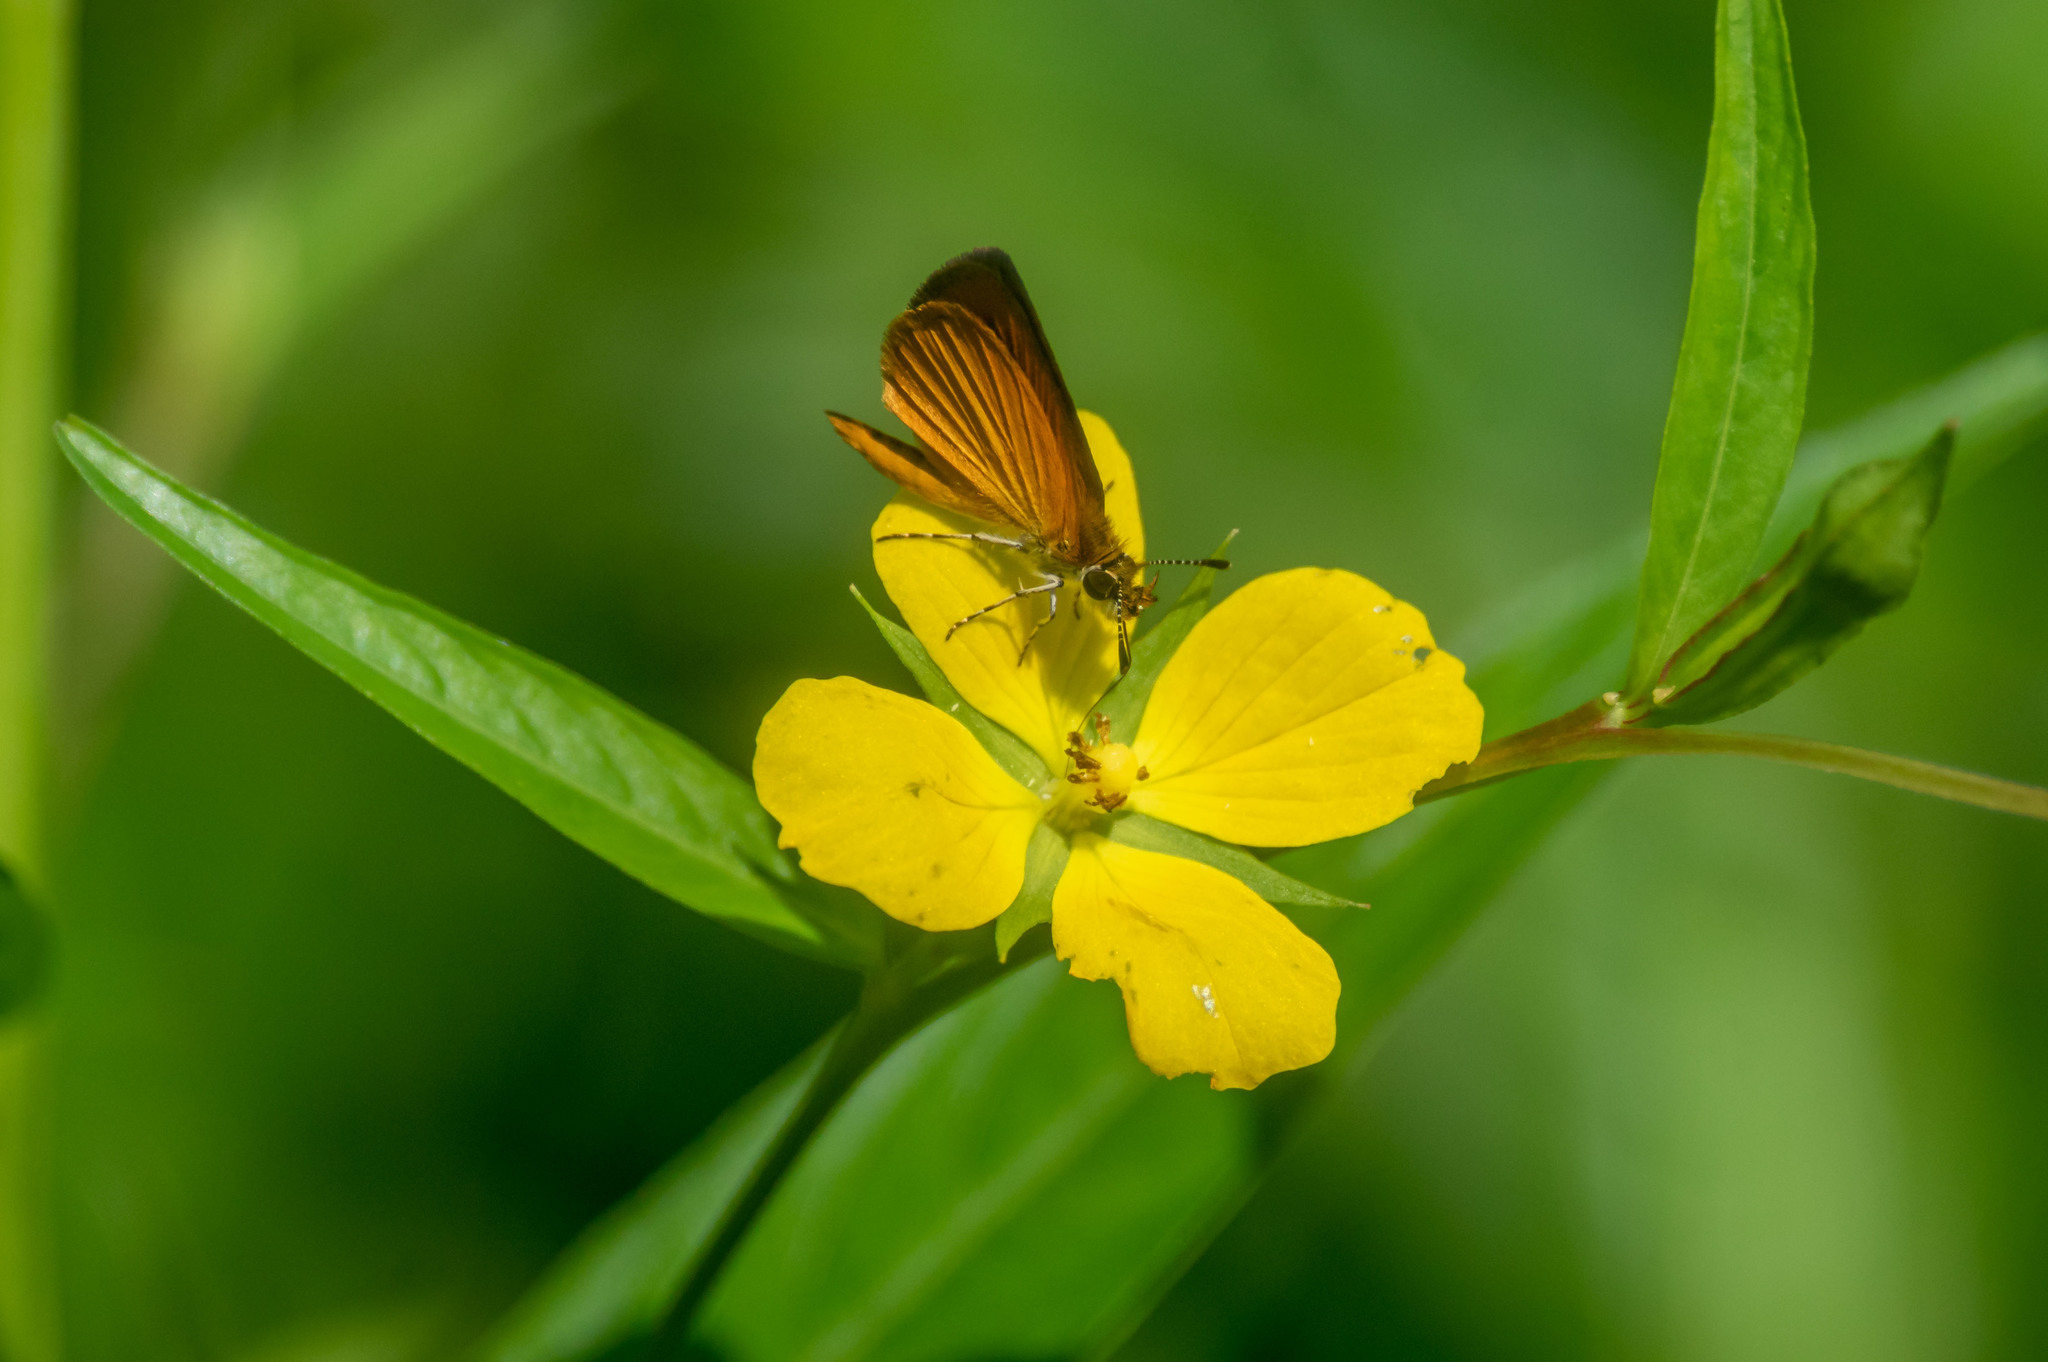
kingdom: Animalia
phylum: Arthropoda
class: Insecta
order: Lepidoptera
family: Hesperiidae
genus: Ancyloxypha
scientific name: Ancyloxypha numitor
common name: Least skipper
